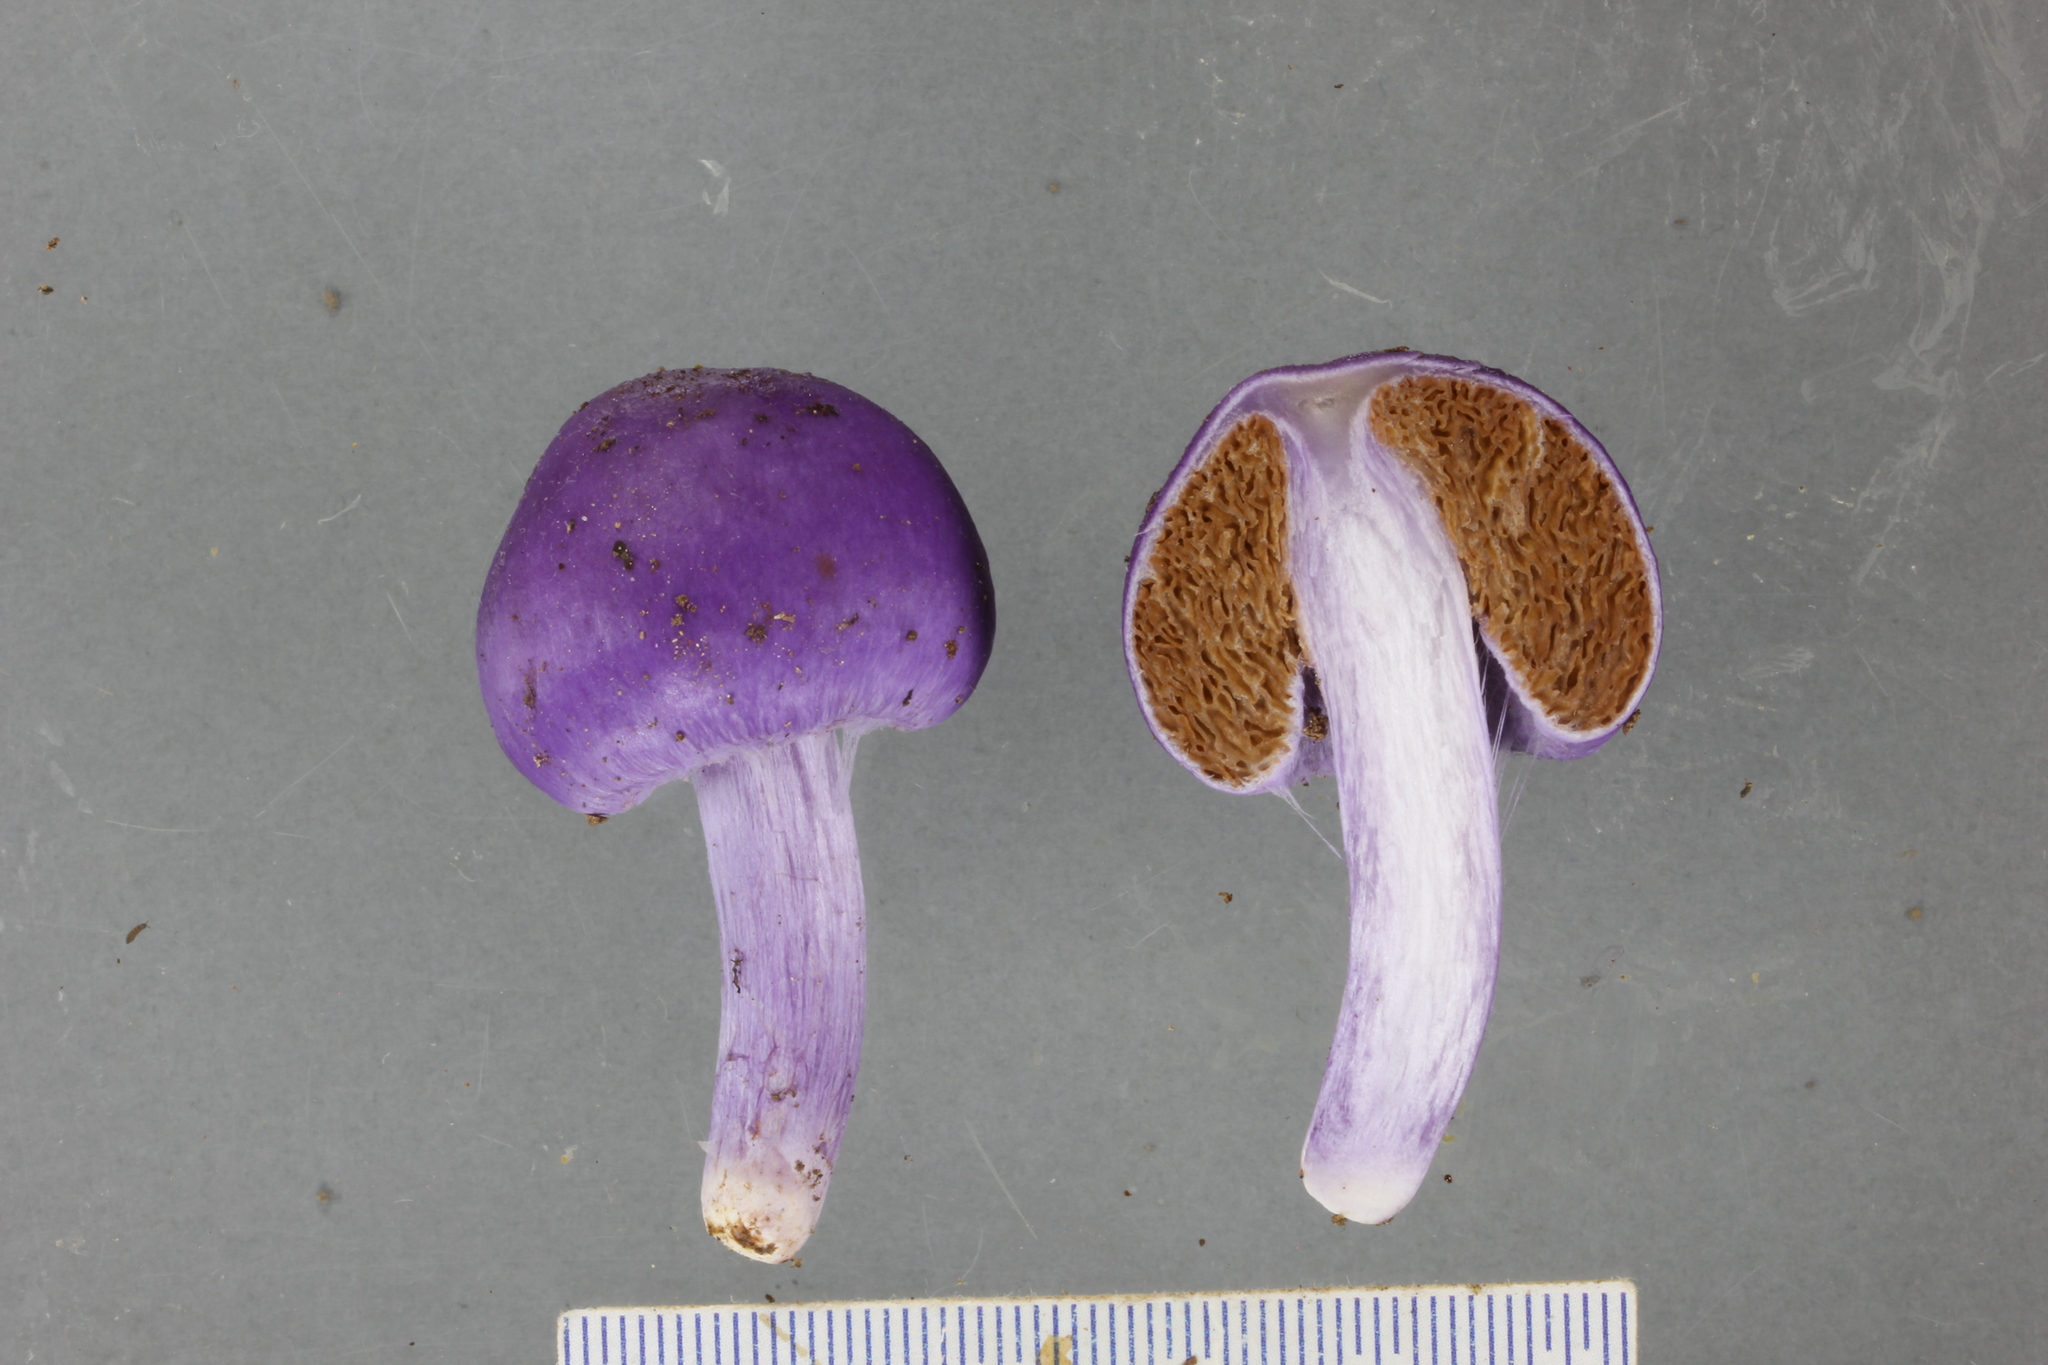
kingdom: Fungi
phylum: Basidiomycota
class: Agaricomycetes
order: Agaricales
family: Cortinariaceae
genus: Cortinarius
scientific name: Cortinarius violaceovolvatus
